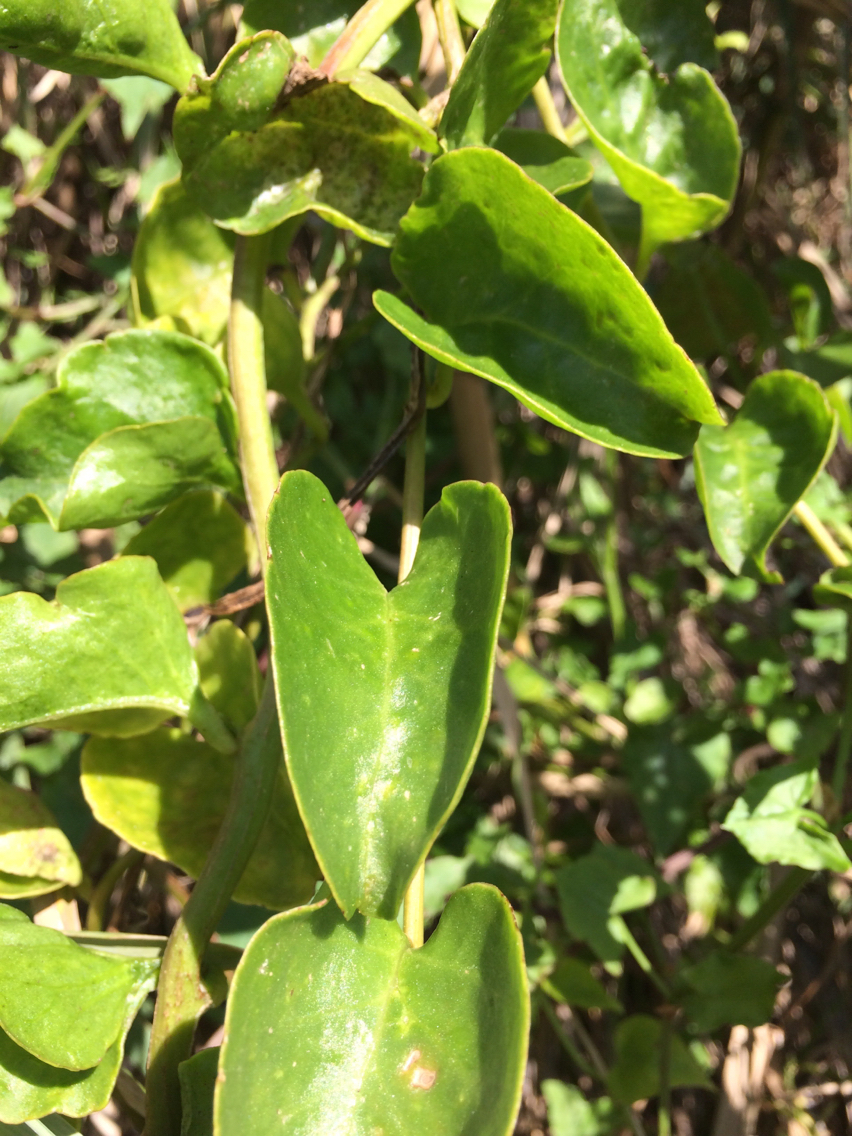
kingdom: Plantae
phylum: Tracheophyta
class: Magnoliopsida
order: Caryophyllales
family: Basellaceae
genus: Anredera
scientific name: Anredera cordifolia
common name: Heartleaf madeiravine
